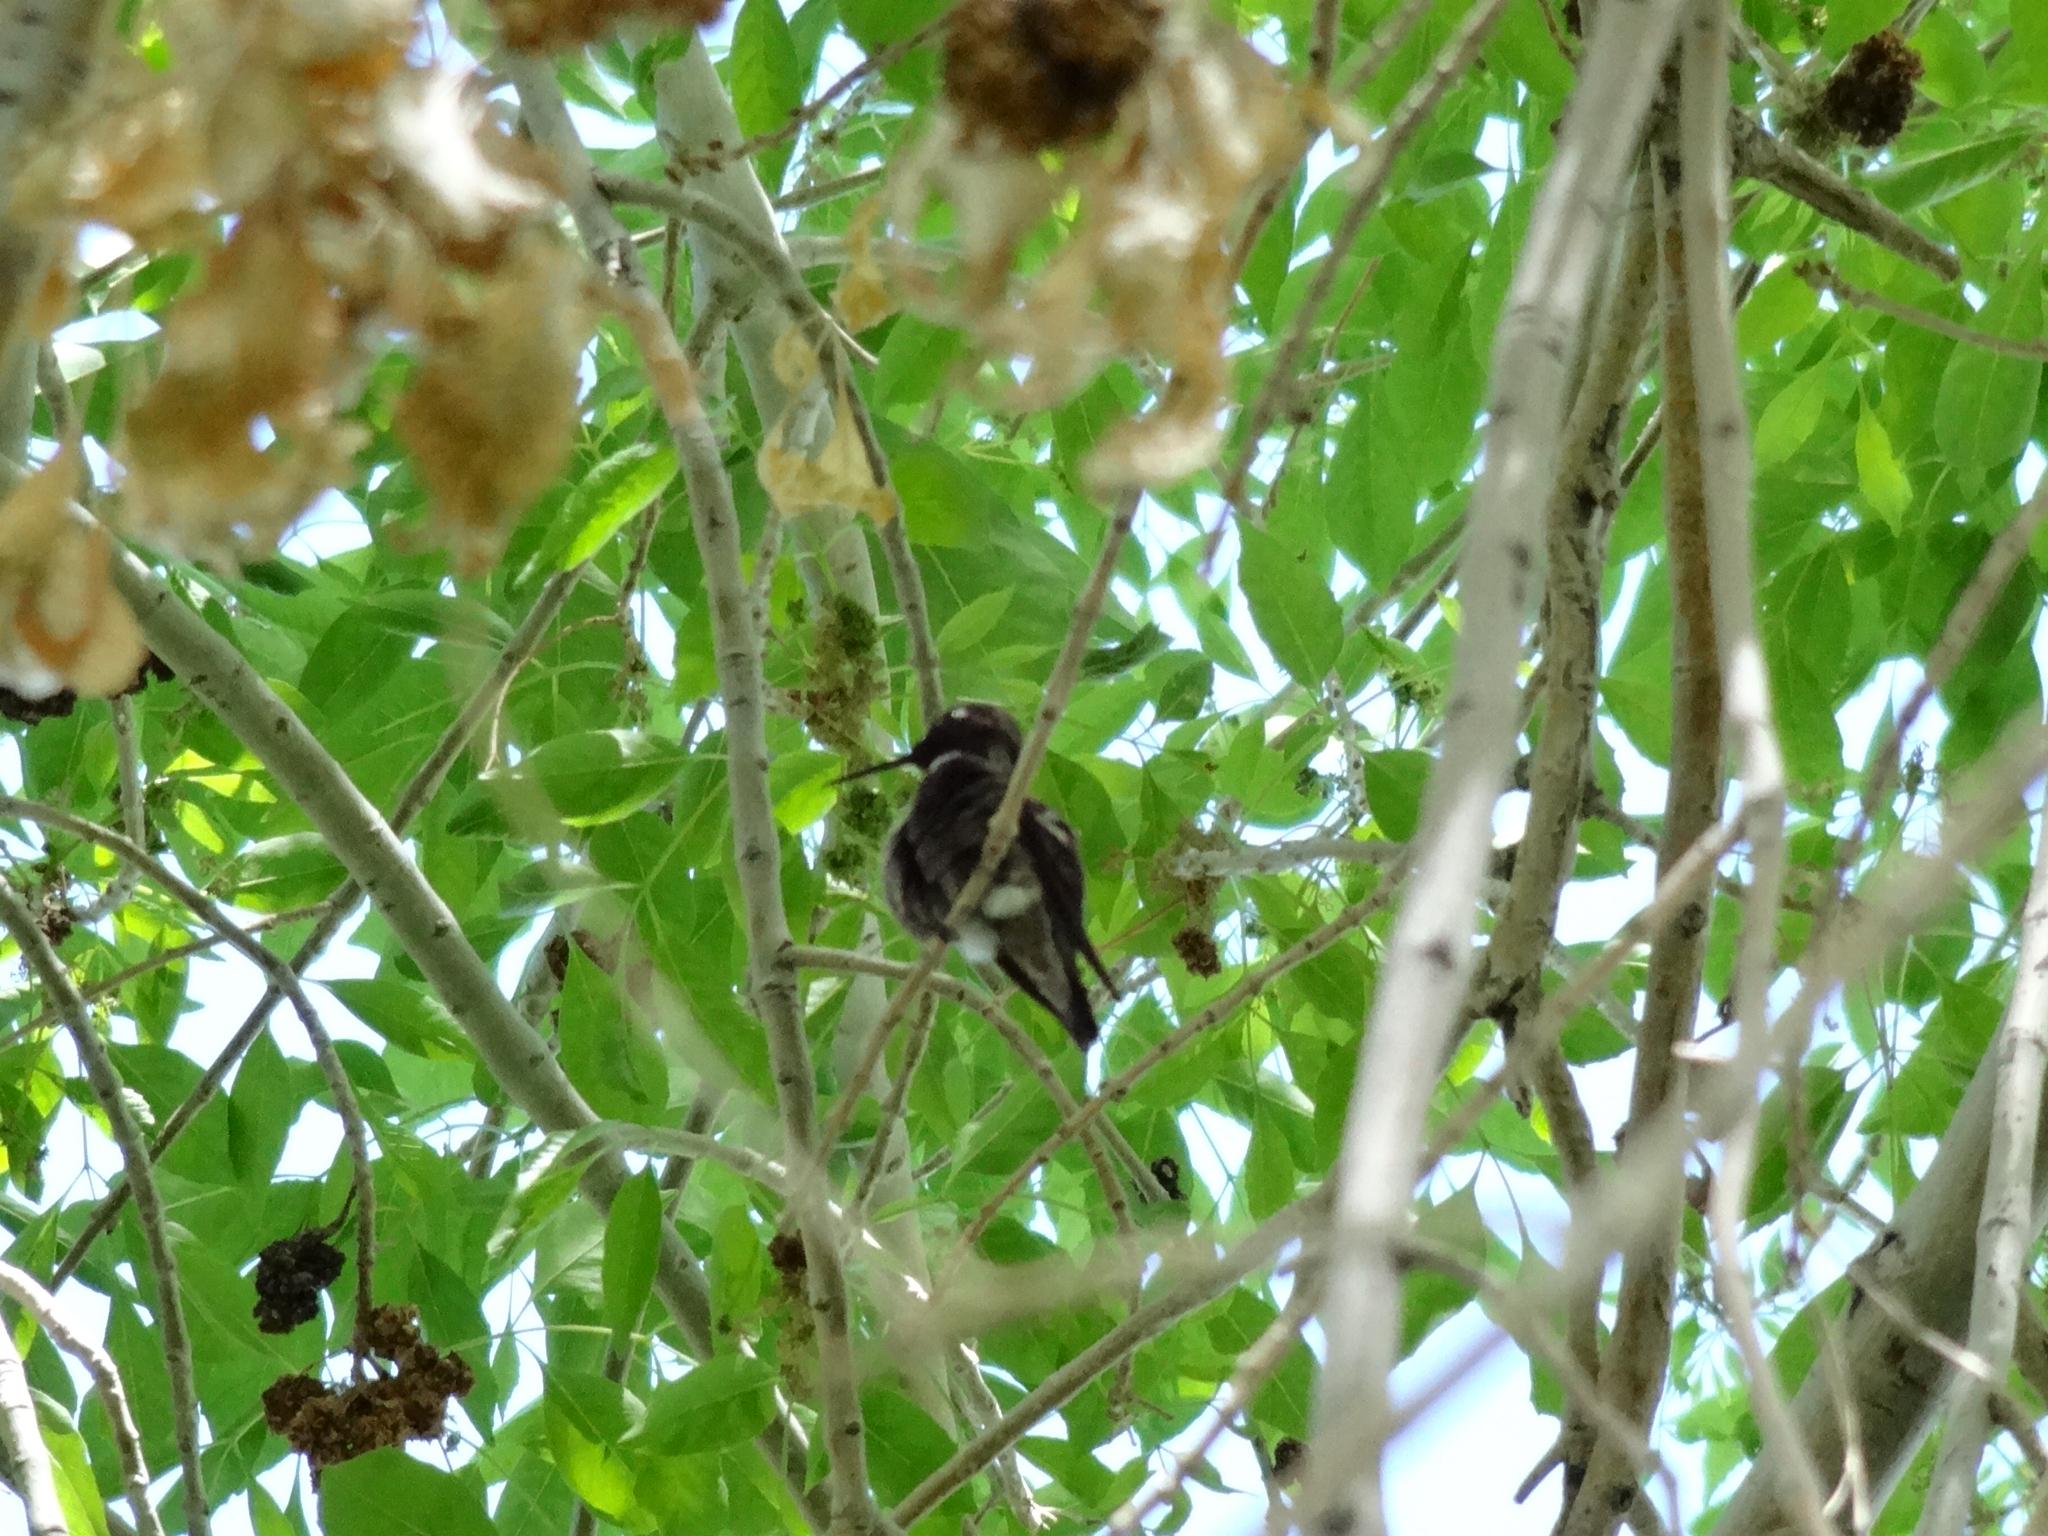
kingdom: Animalia
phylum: Chordata
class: Aves
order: Apodiformes
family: Trochilidae
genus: Calypte
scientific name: Calypte anna
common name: Anna's hummingbird
